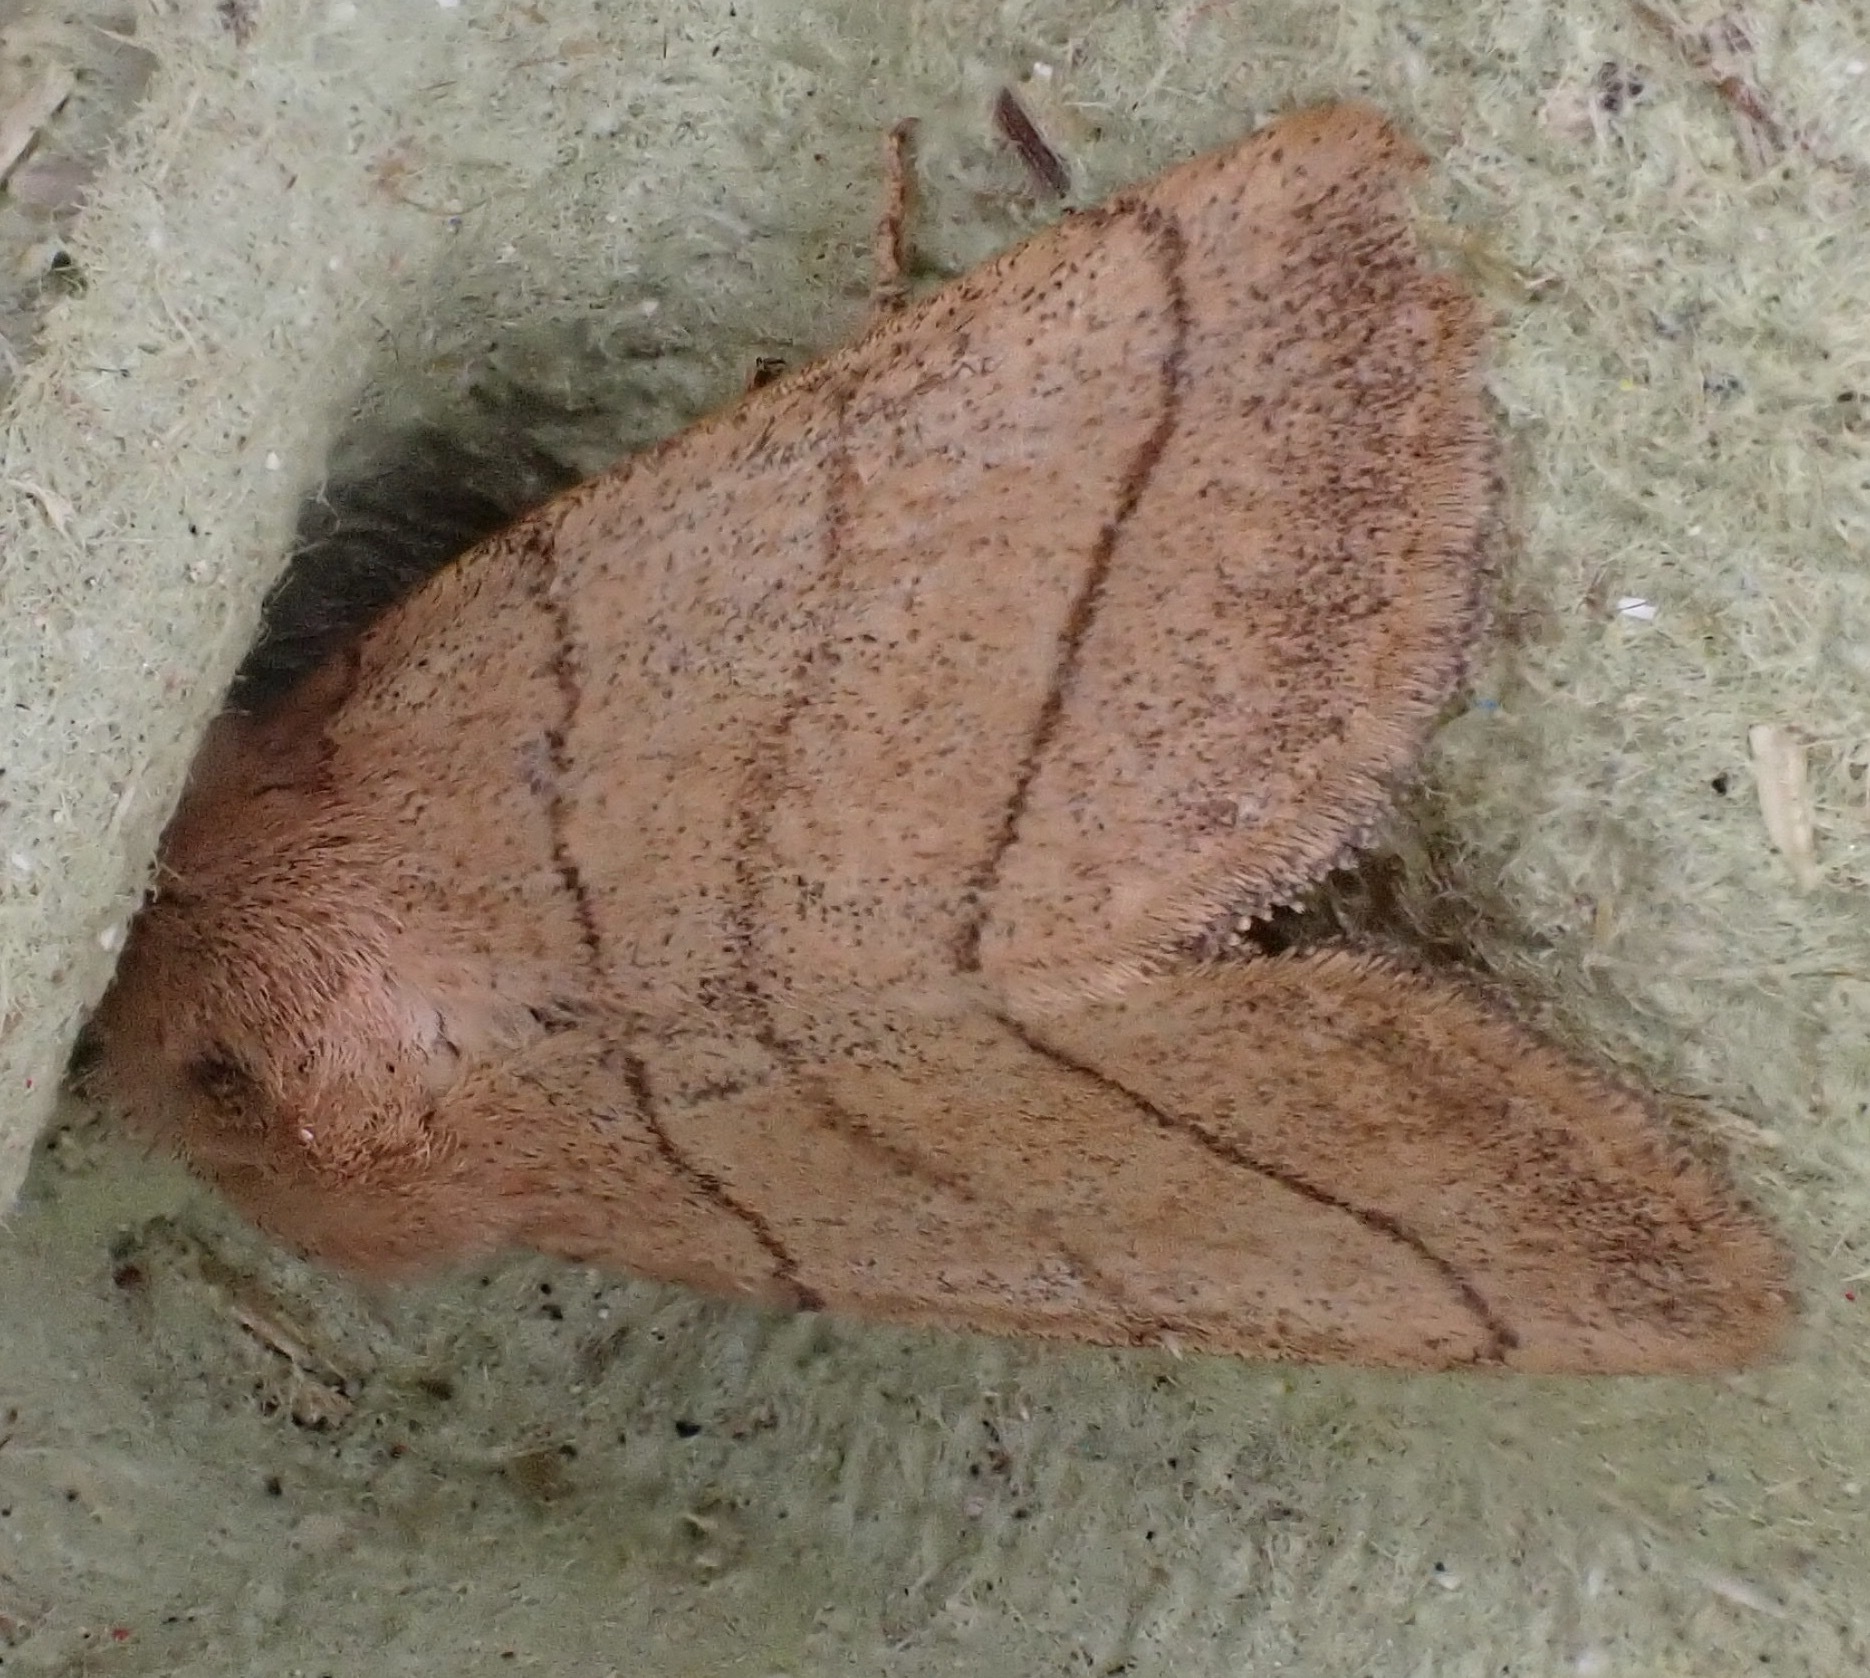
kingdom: Animalia
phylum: Arthropoda
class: Insecta
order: Lepidoptera
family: Noctuidae
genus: Charanyca
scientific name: Charanyca trigrammica
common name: Treble lines
